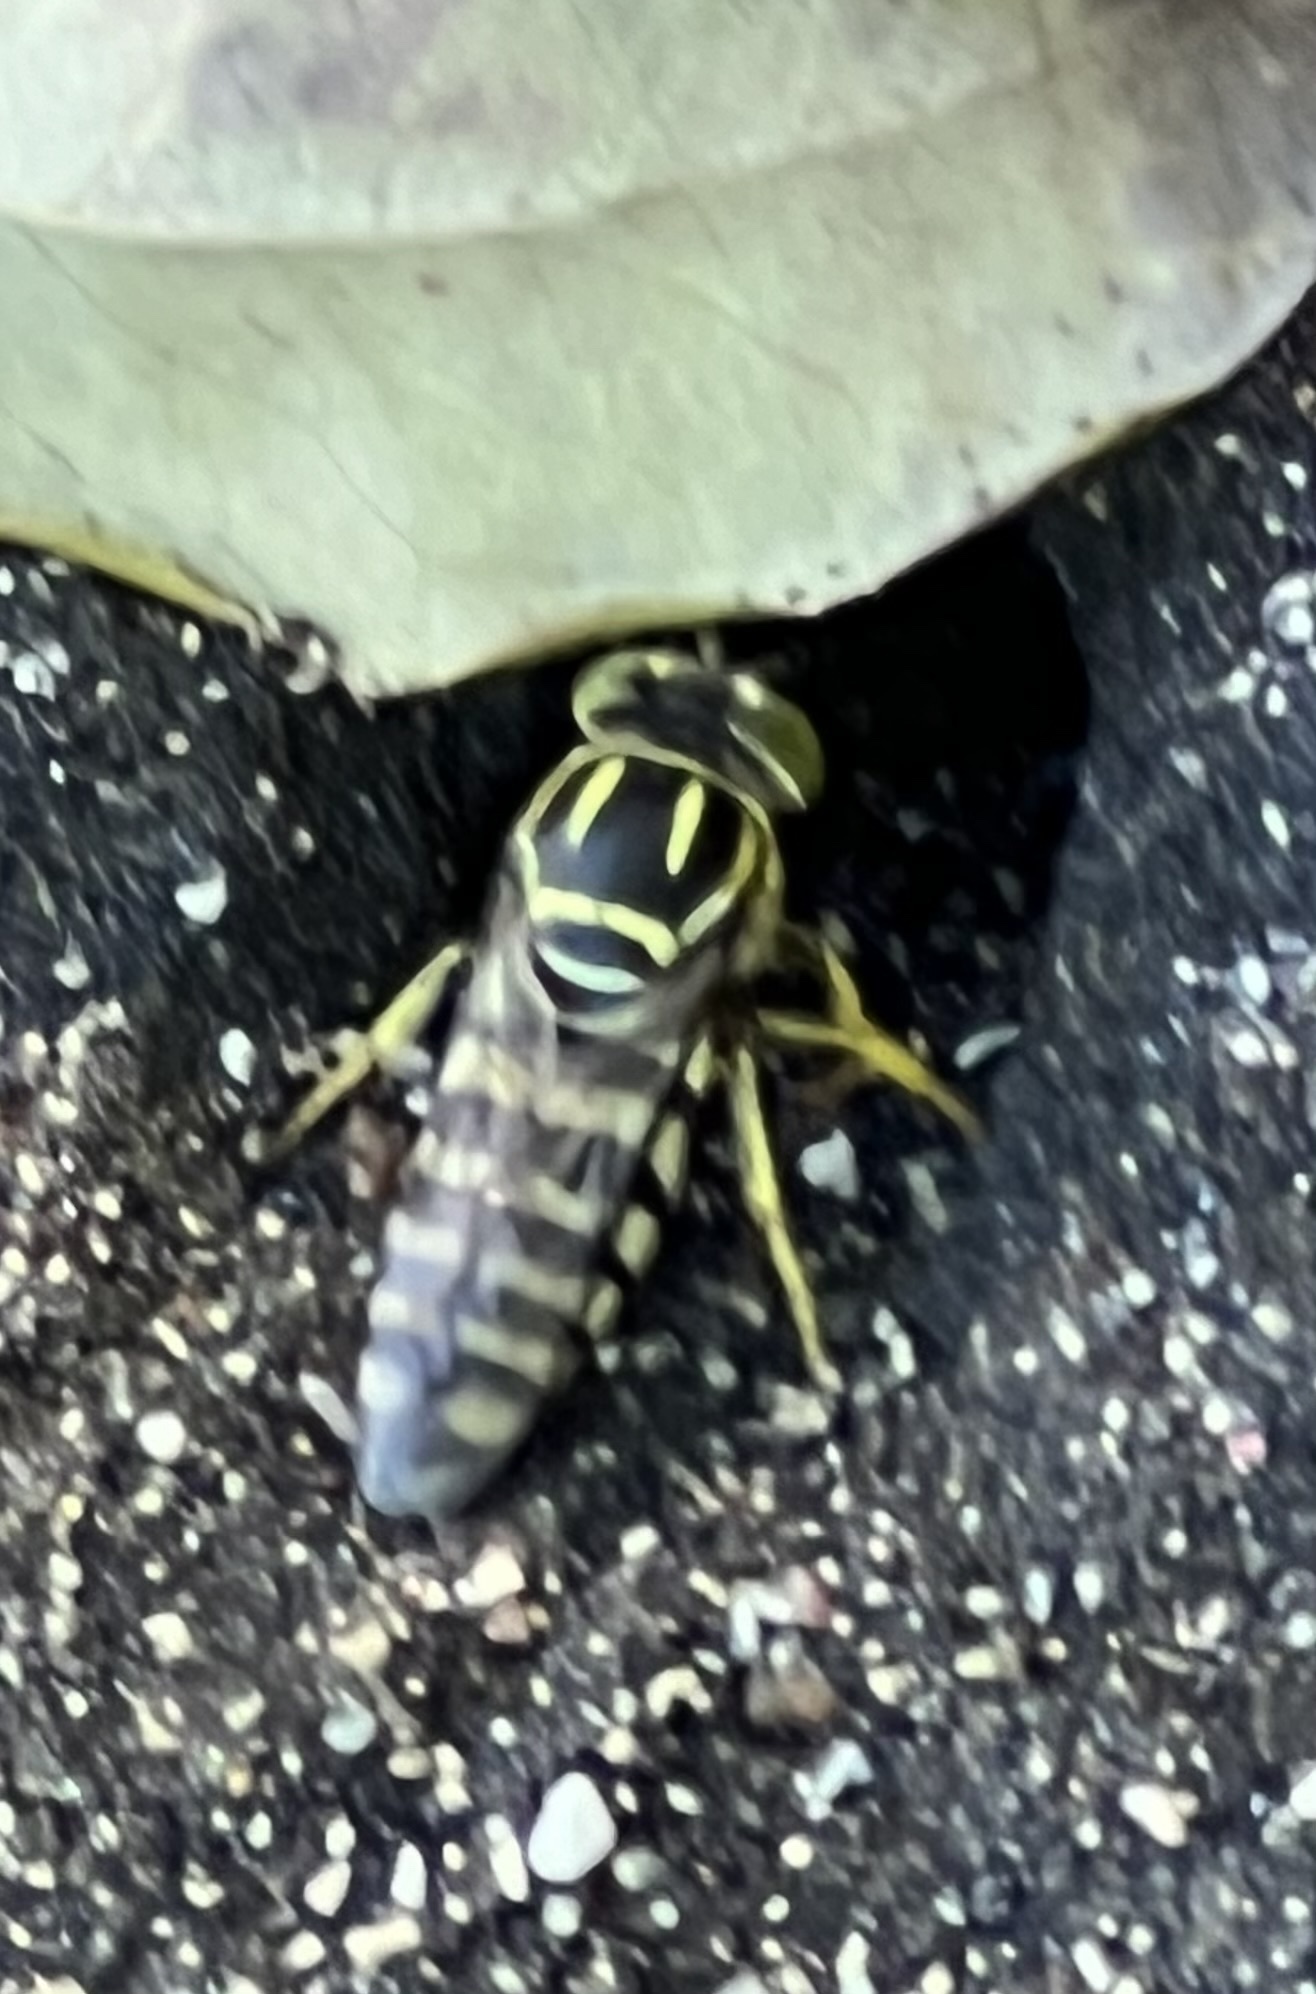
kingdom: Animalia
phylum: Arthropoda
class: Insecta
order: Hymenoptera
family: Crabronidae
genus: Bicyrtes
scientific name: Bicyrtes variegatus
